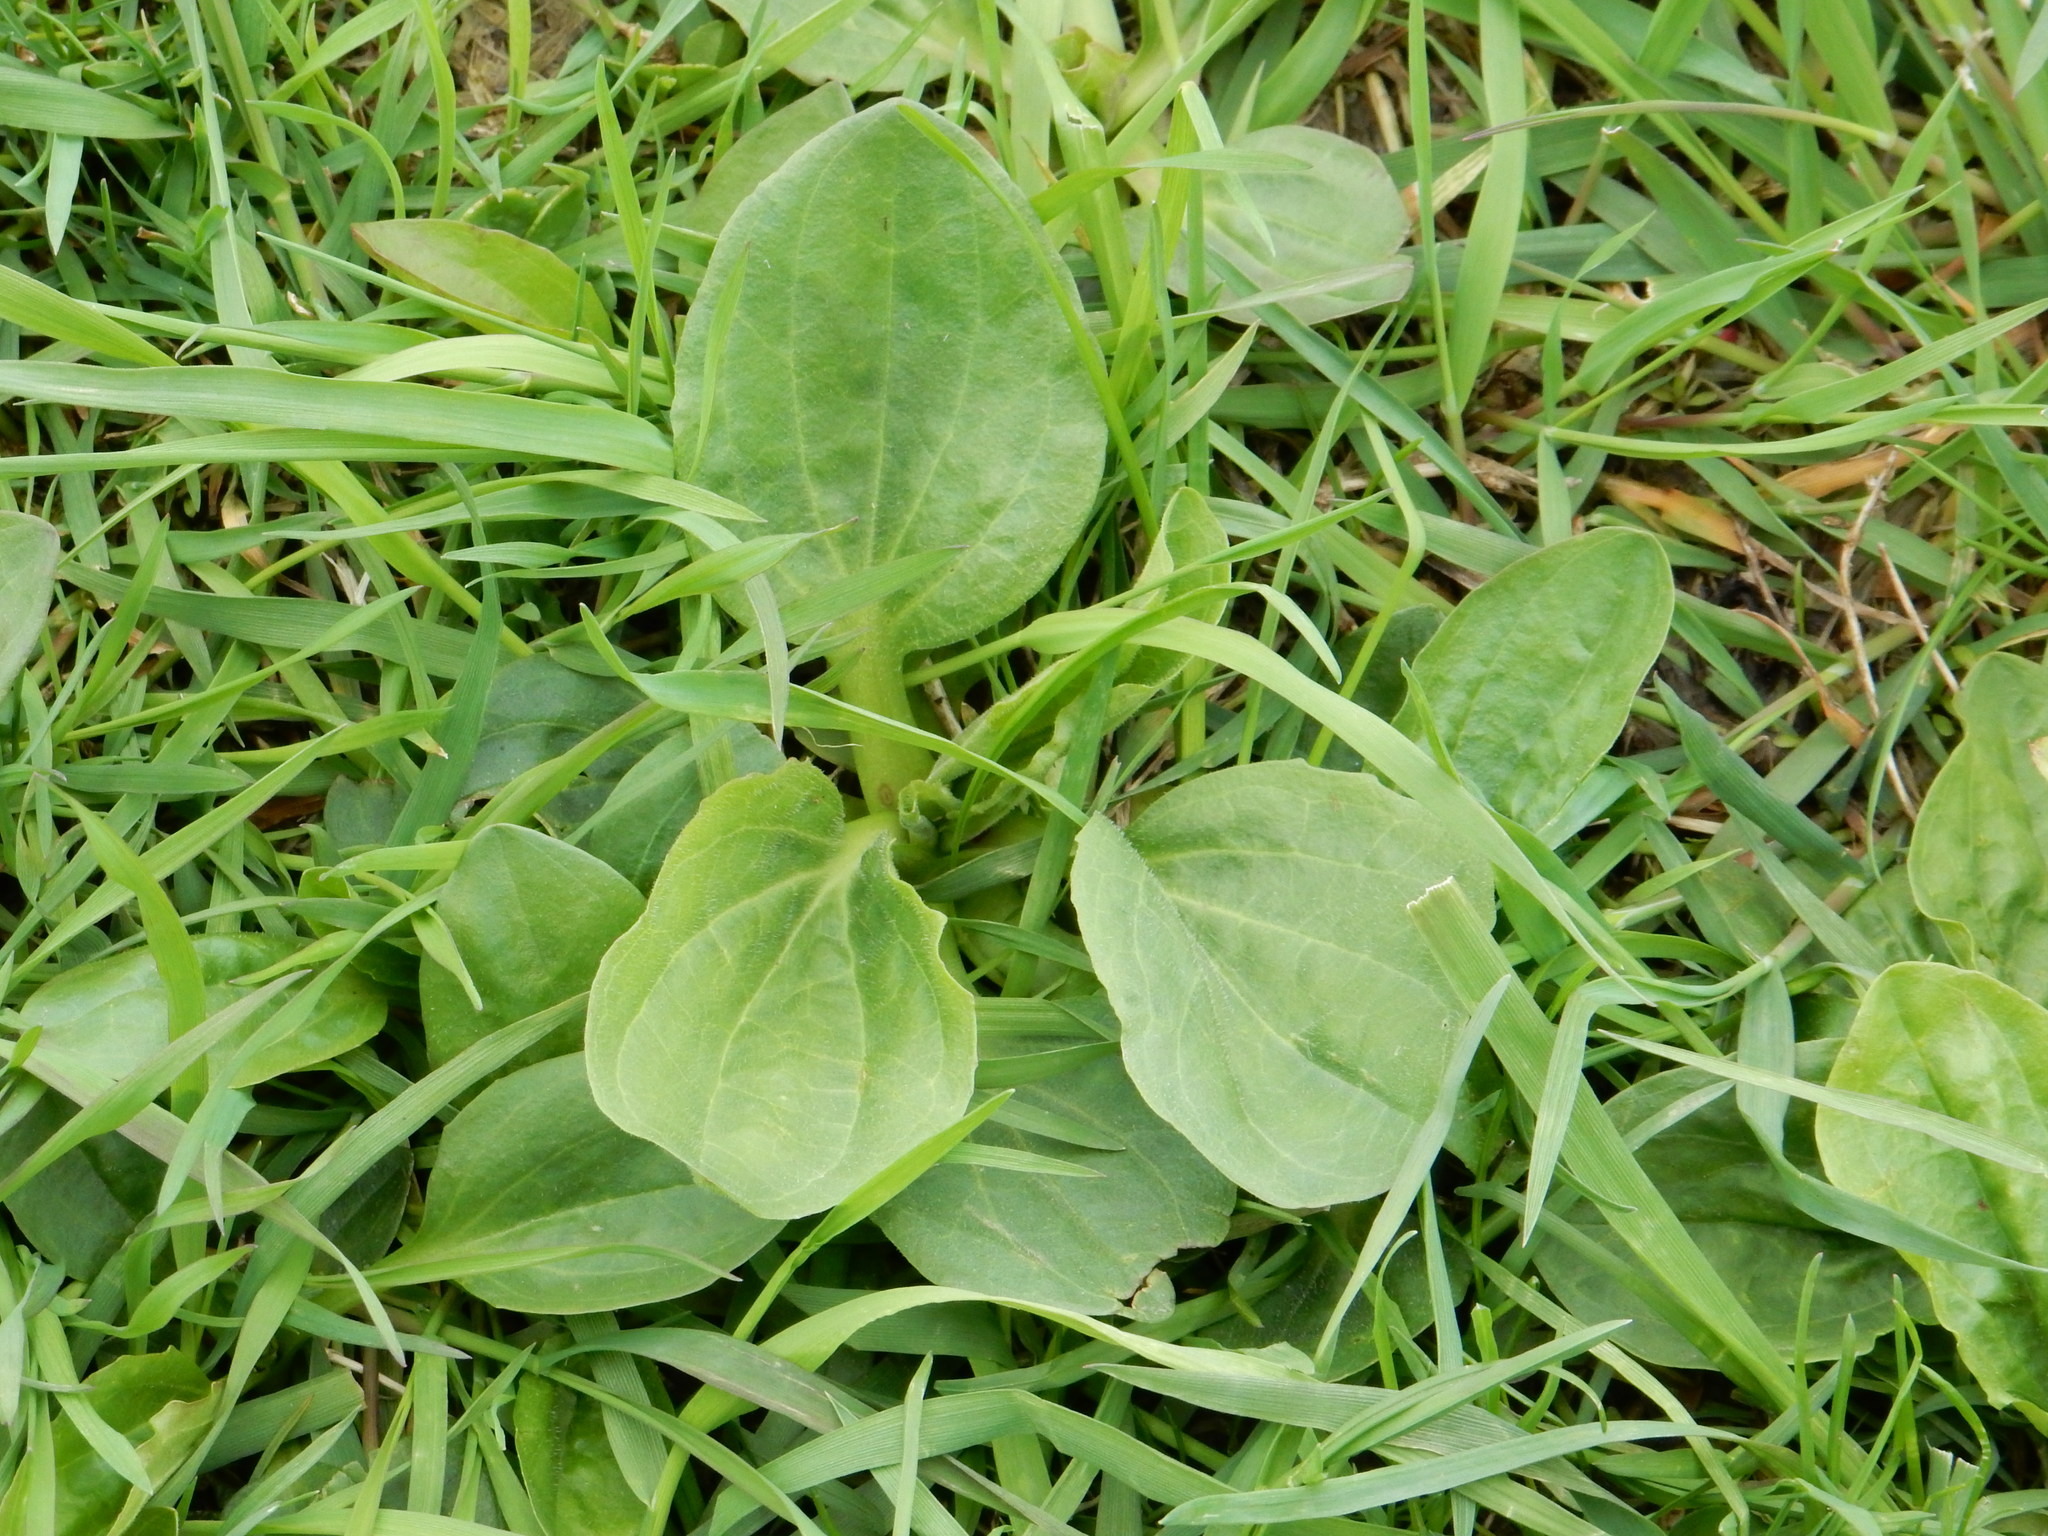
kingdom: Plantae
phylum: Tracheophyta
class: Magnoliopsida
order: Lamiales
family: Plantaginaceae
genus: Plantago
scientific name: Plantago major
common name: Common plantain
